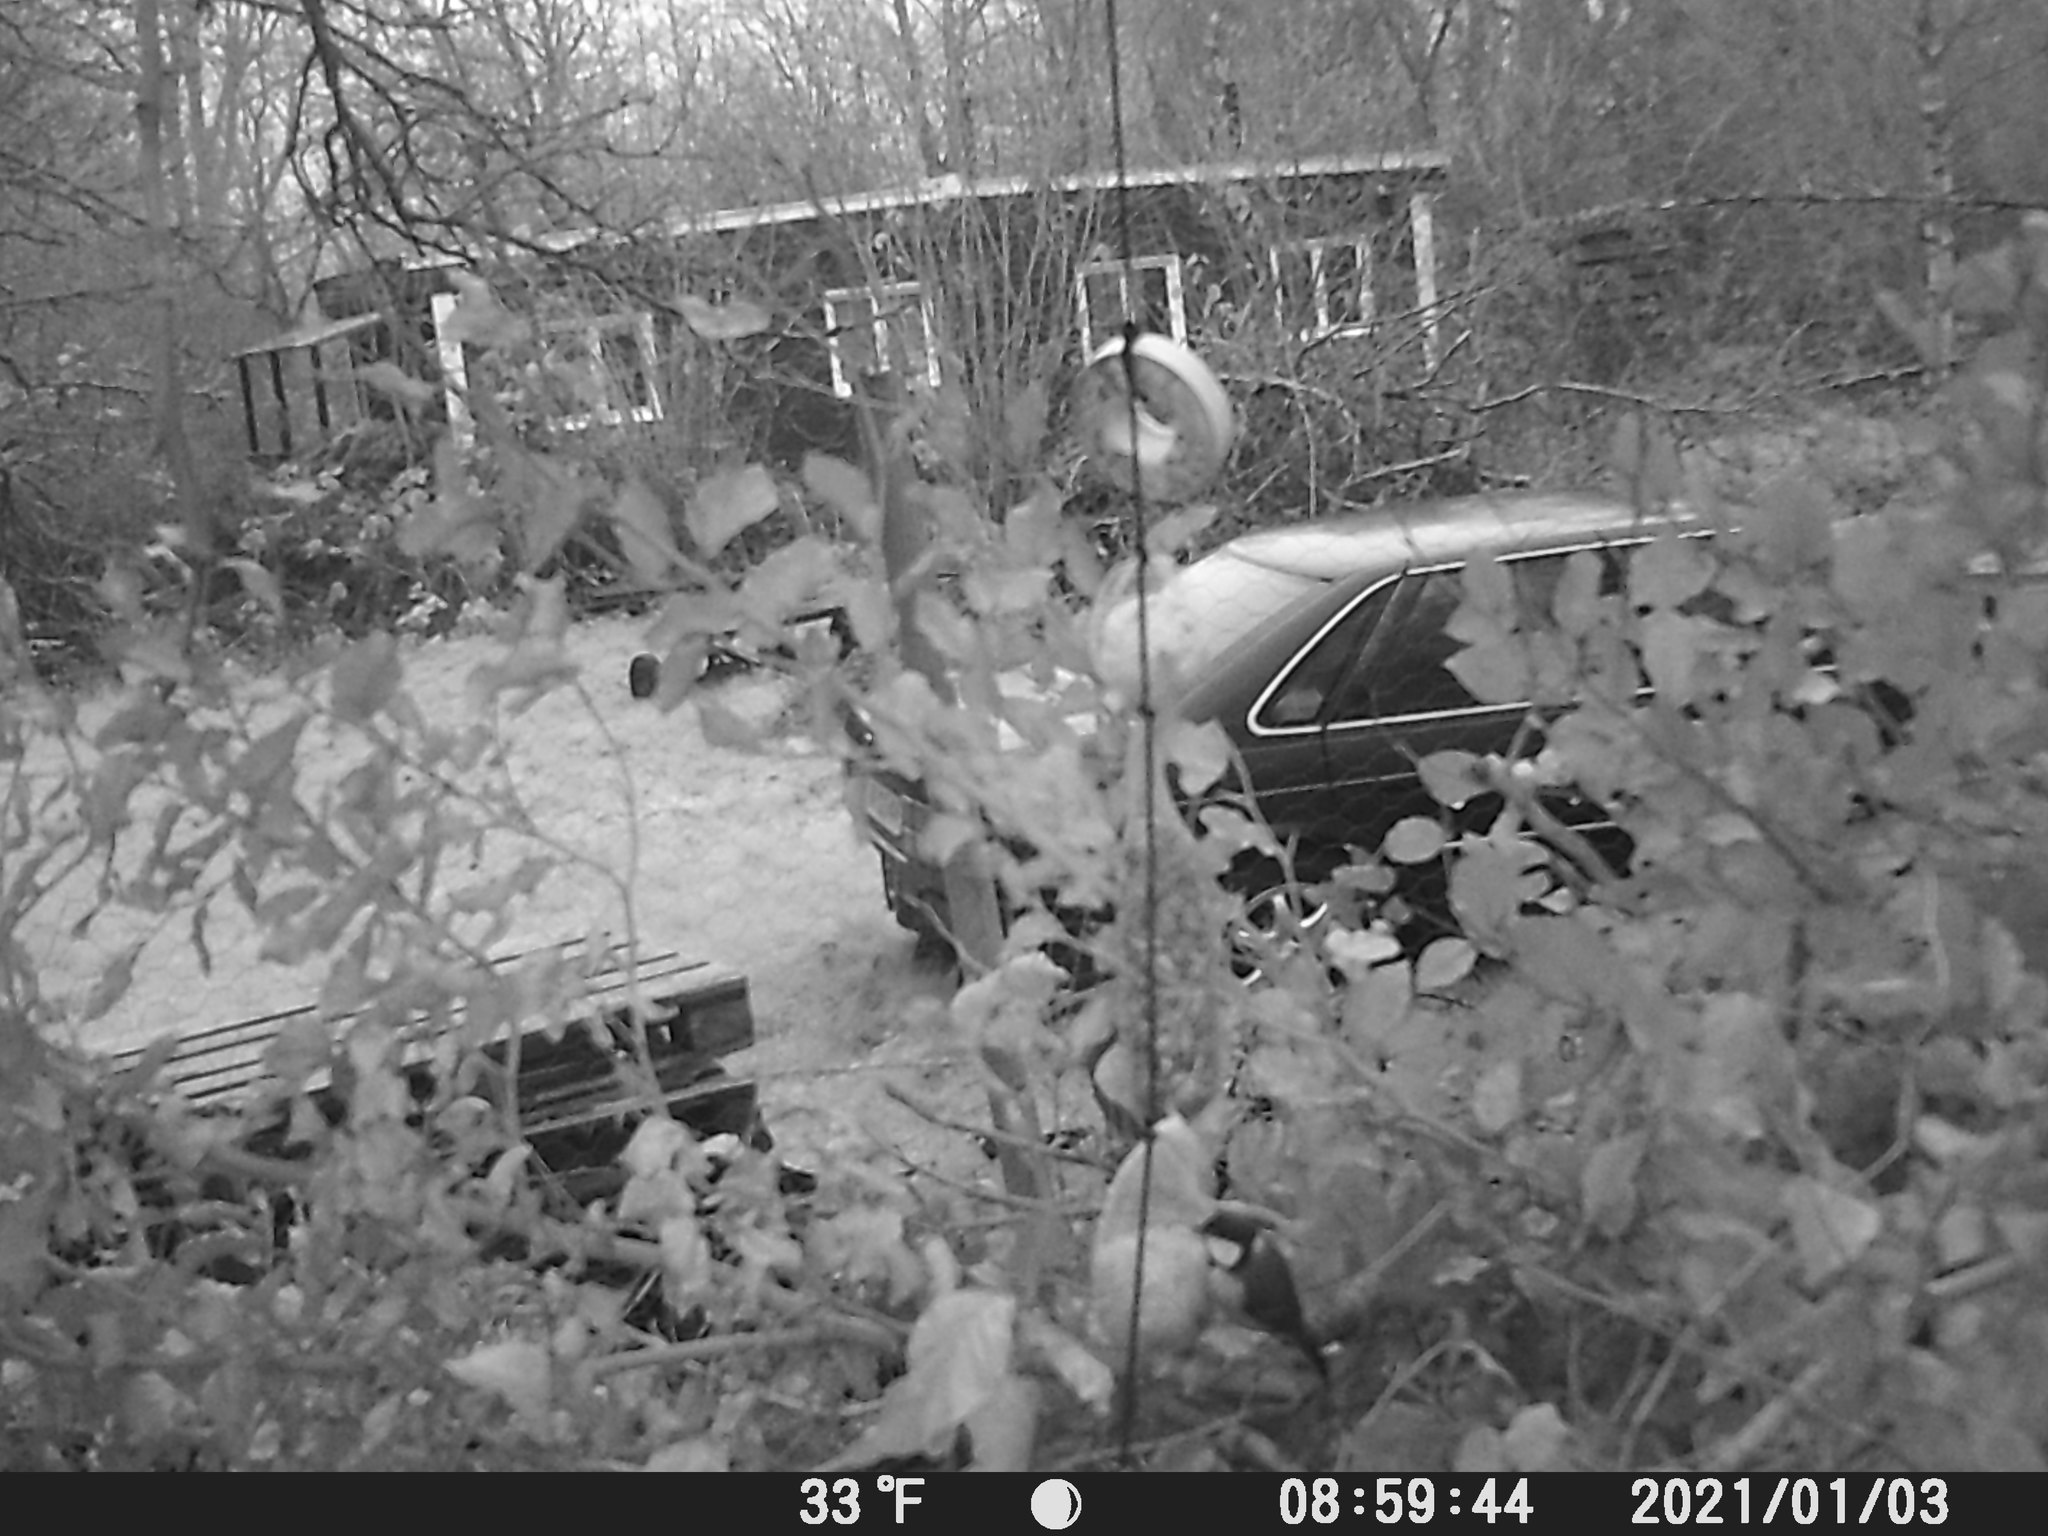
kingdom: Animalia
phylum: Chordata
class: Aves
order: Passeriformes
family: Paridae
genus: Parus
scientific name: Parus major
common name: Great tit
